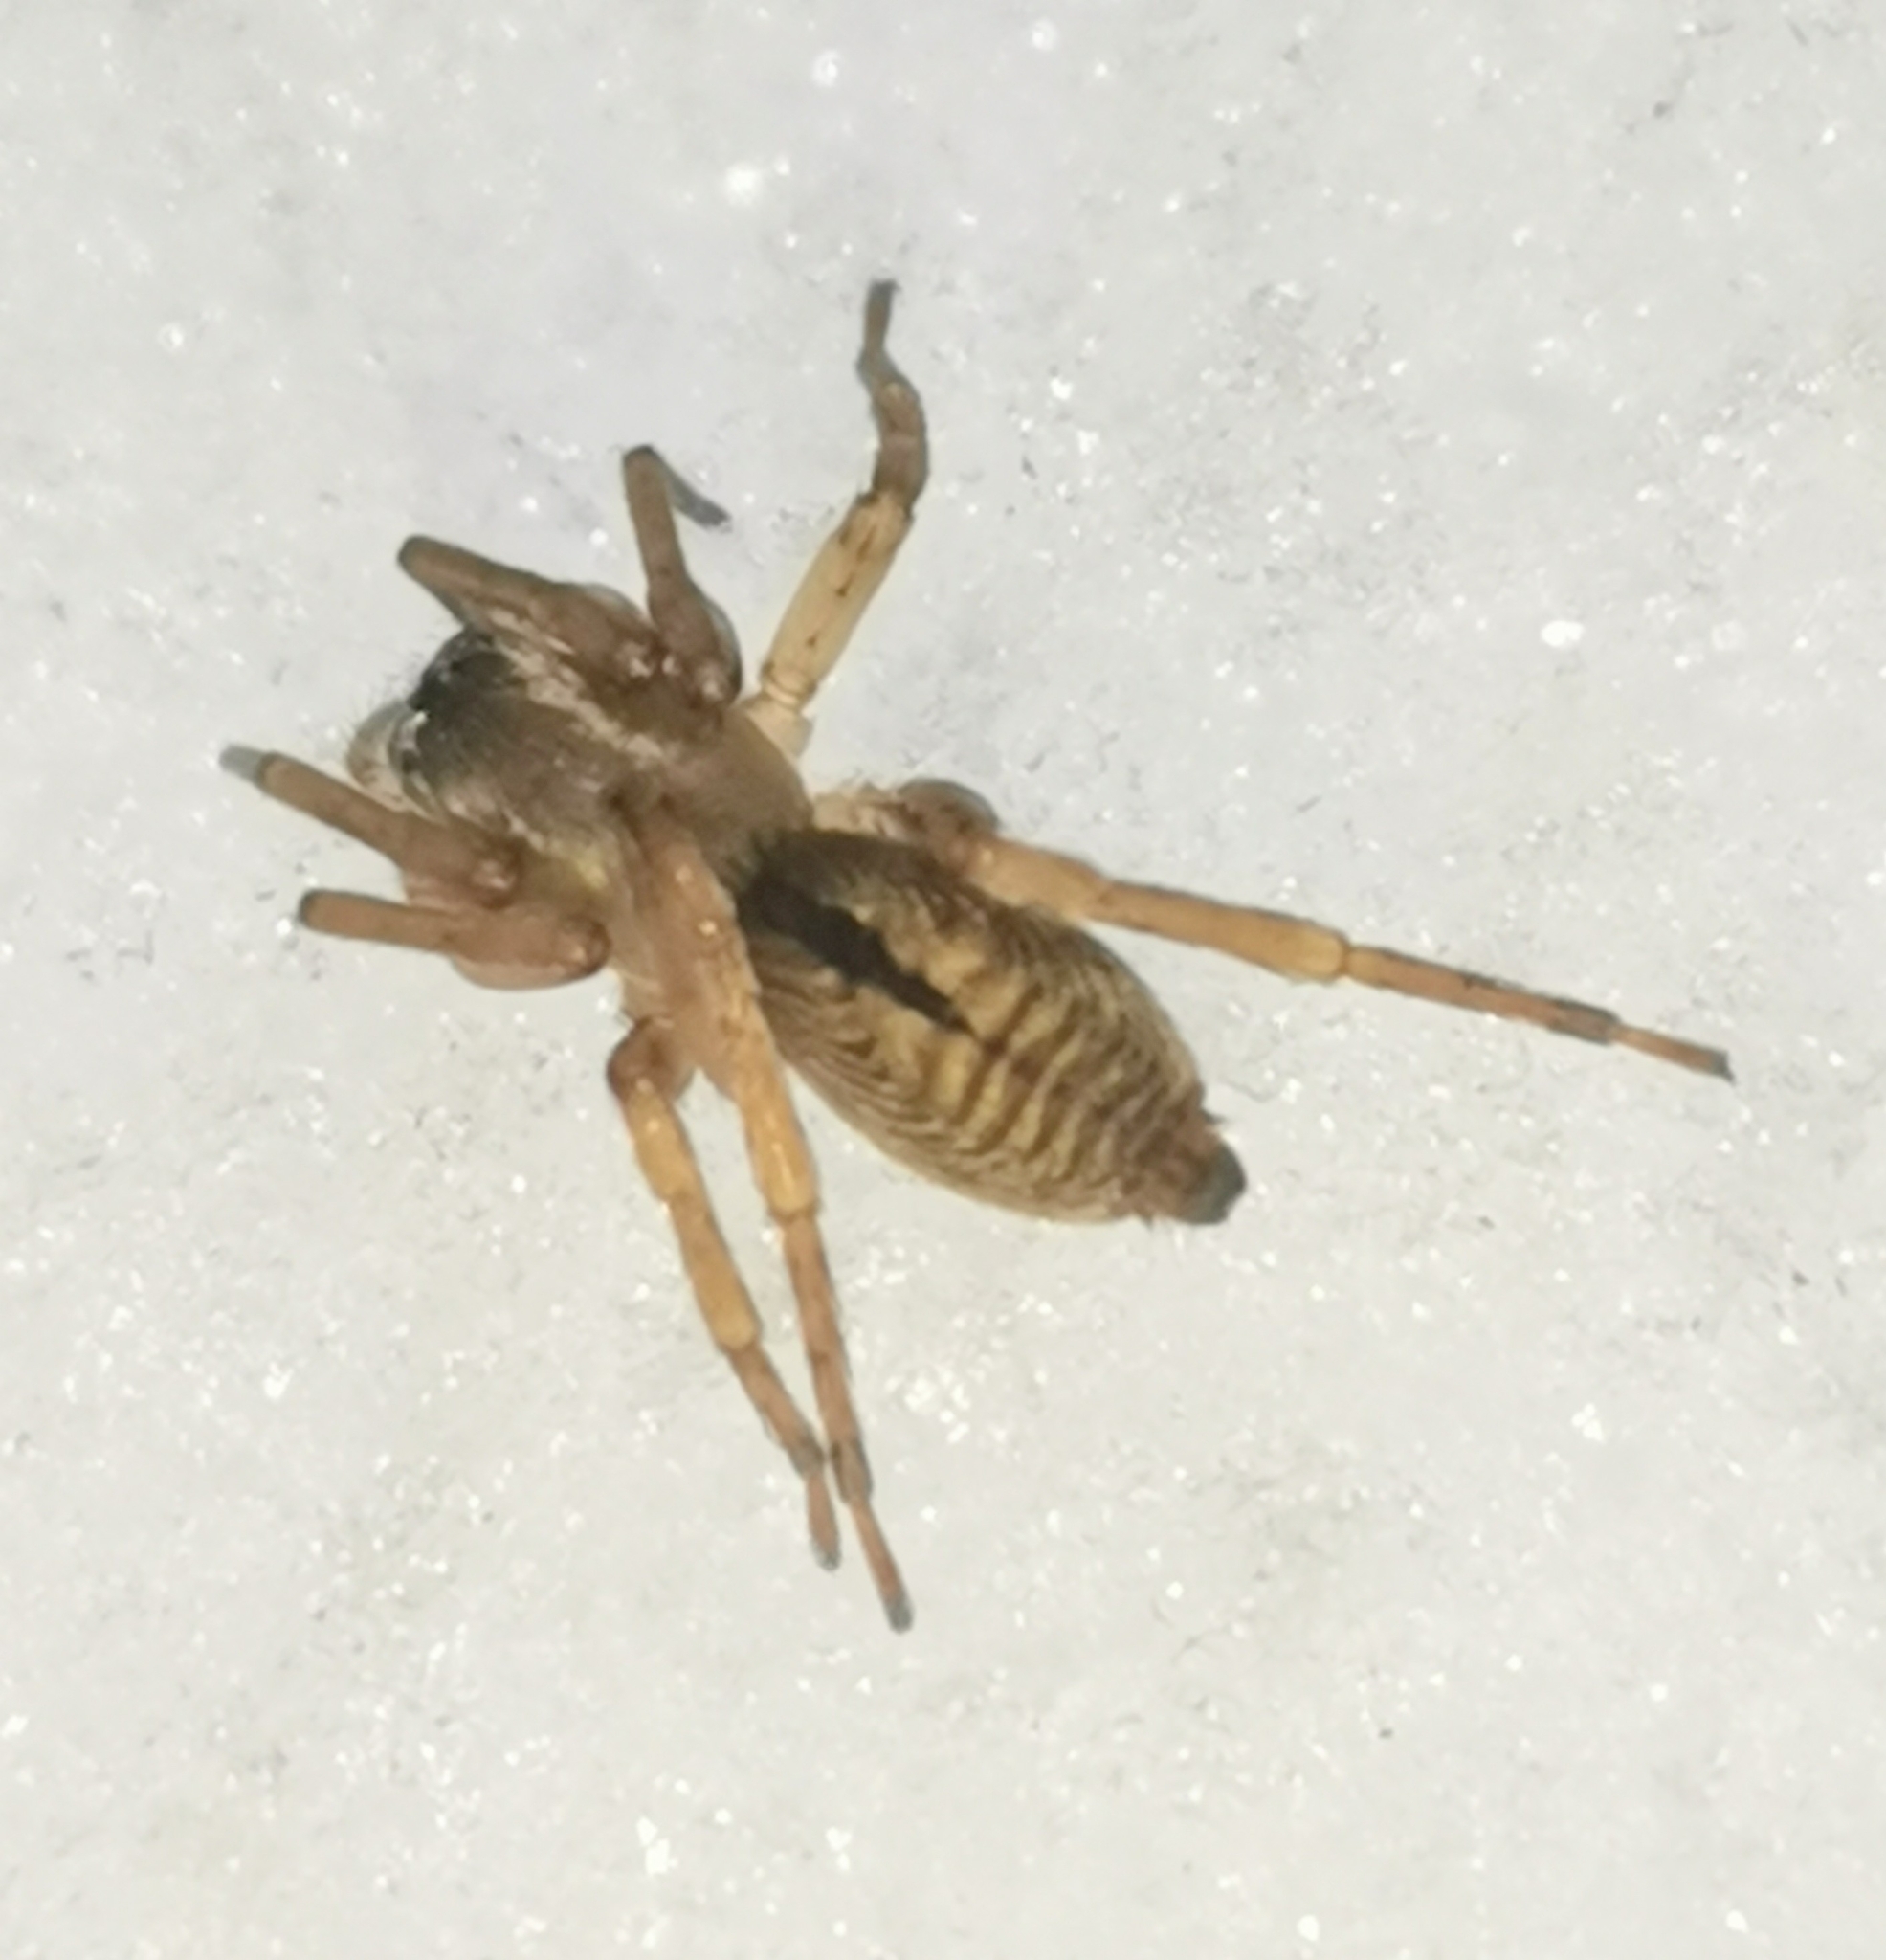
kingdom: Animalia
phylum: Arthropoda
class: Arachnida
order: Araneae
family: Clubionidae
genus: Clubiona
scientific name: Clubiona subsultans
